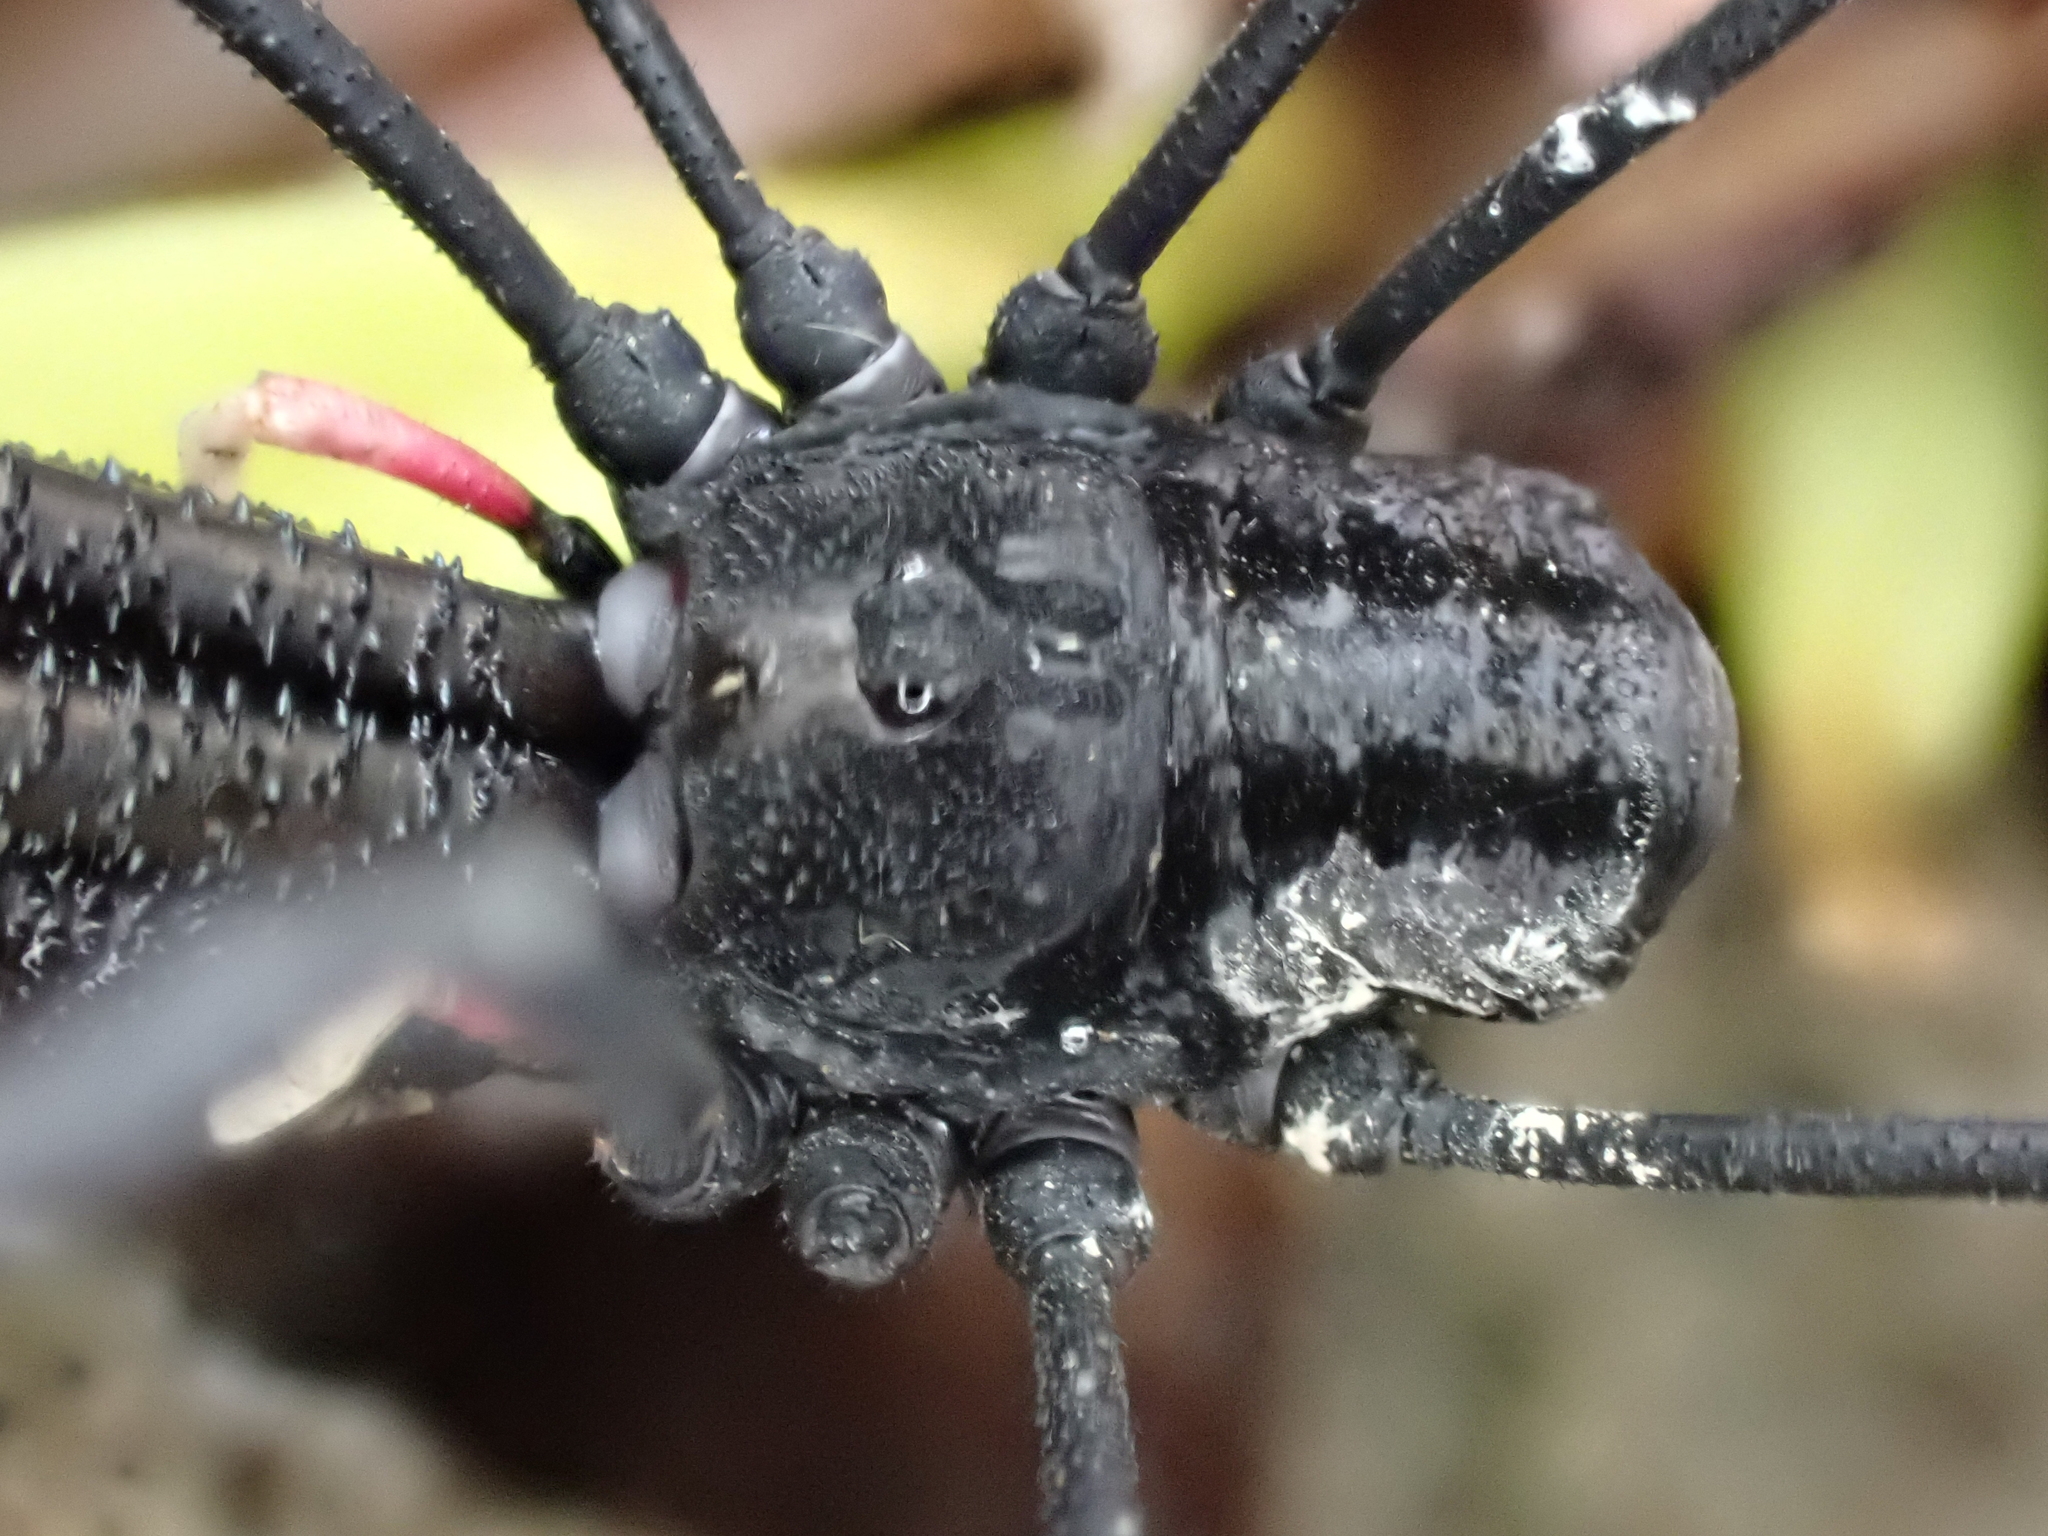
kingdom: Animalia
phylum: Arthropoda
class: Arachnida
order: Opiliones
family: Neopilionidae
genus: Forsteropsalis
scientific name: Forsteropsalis inconstans
